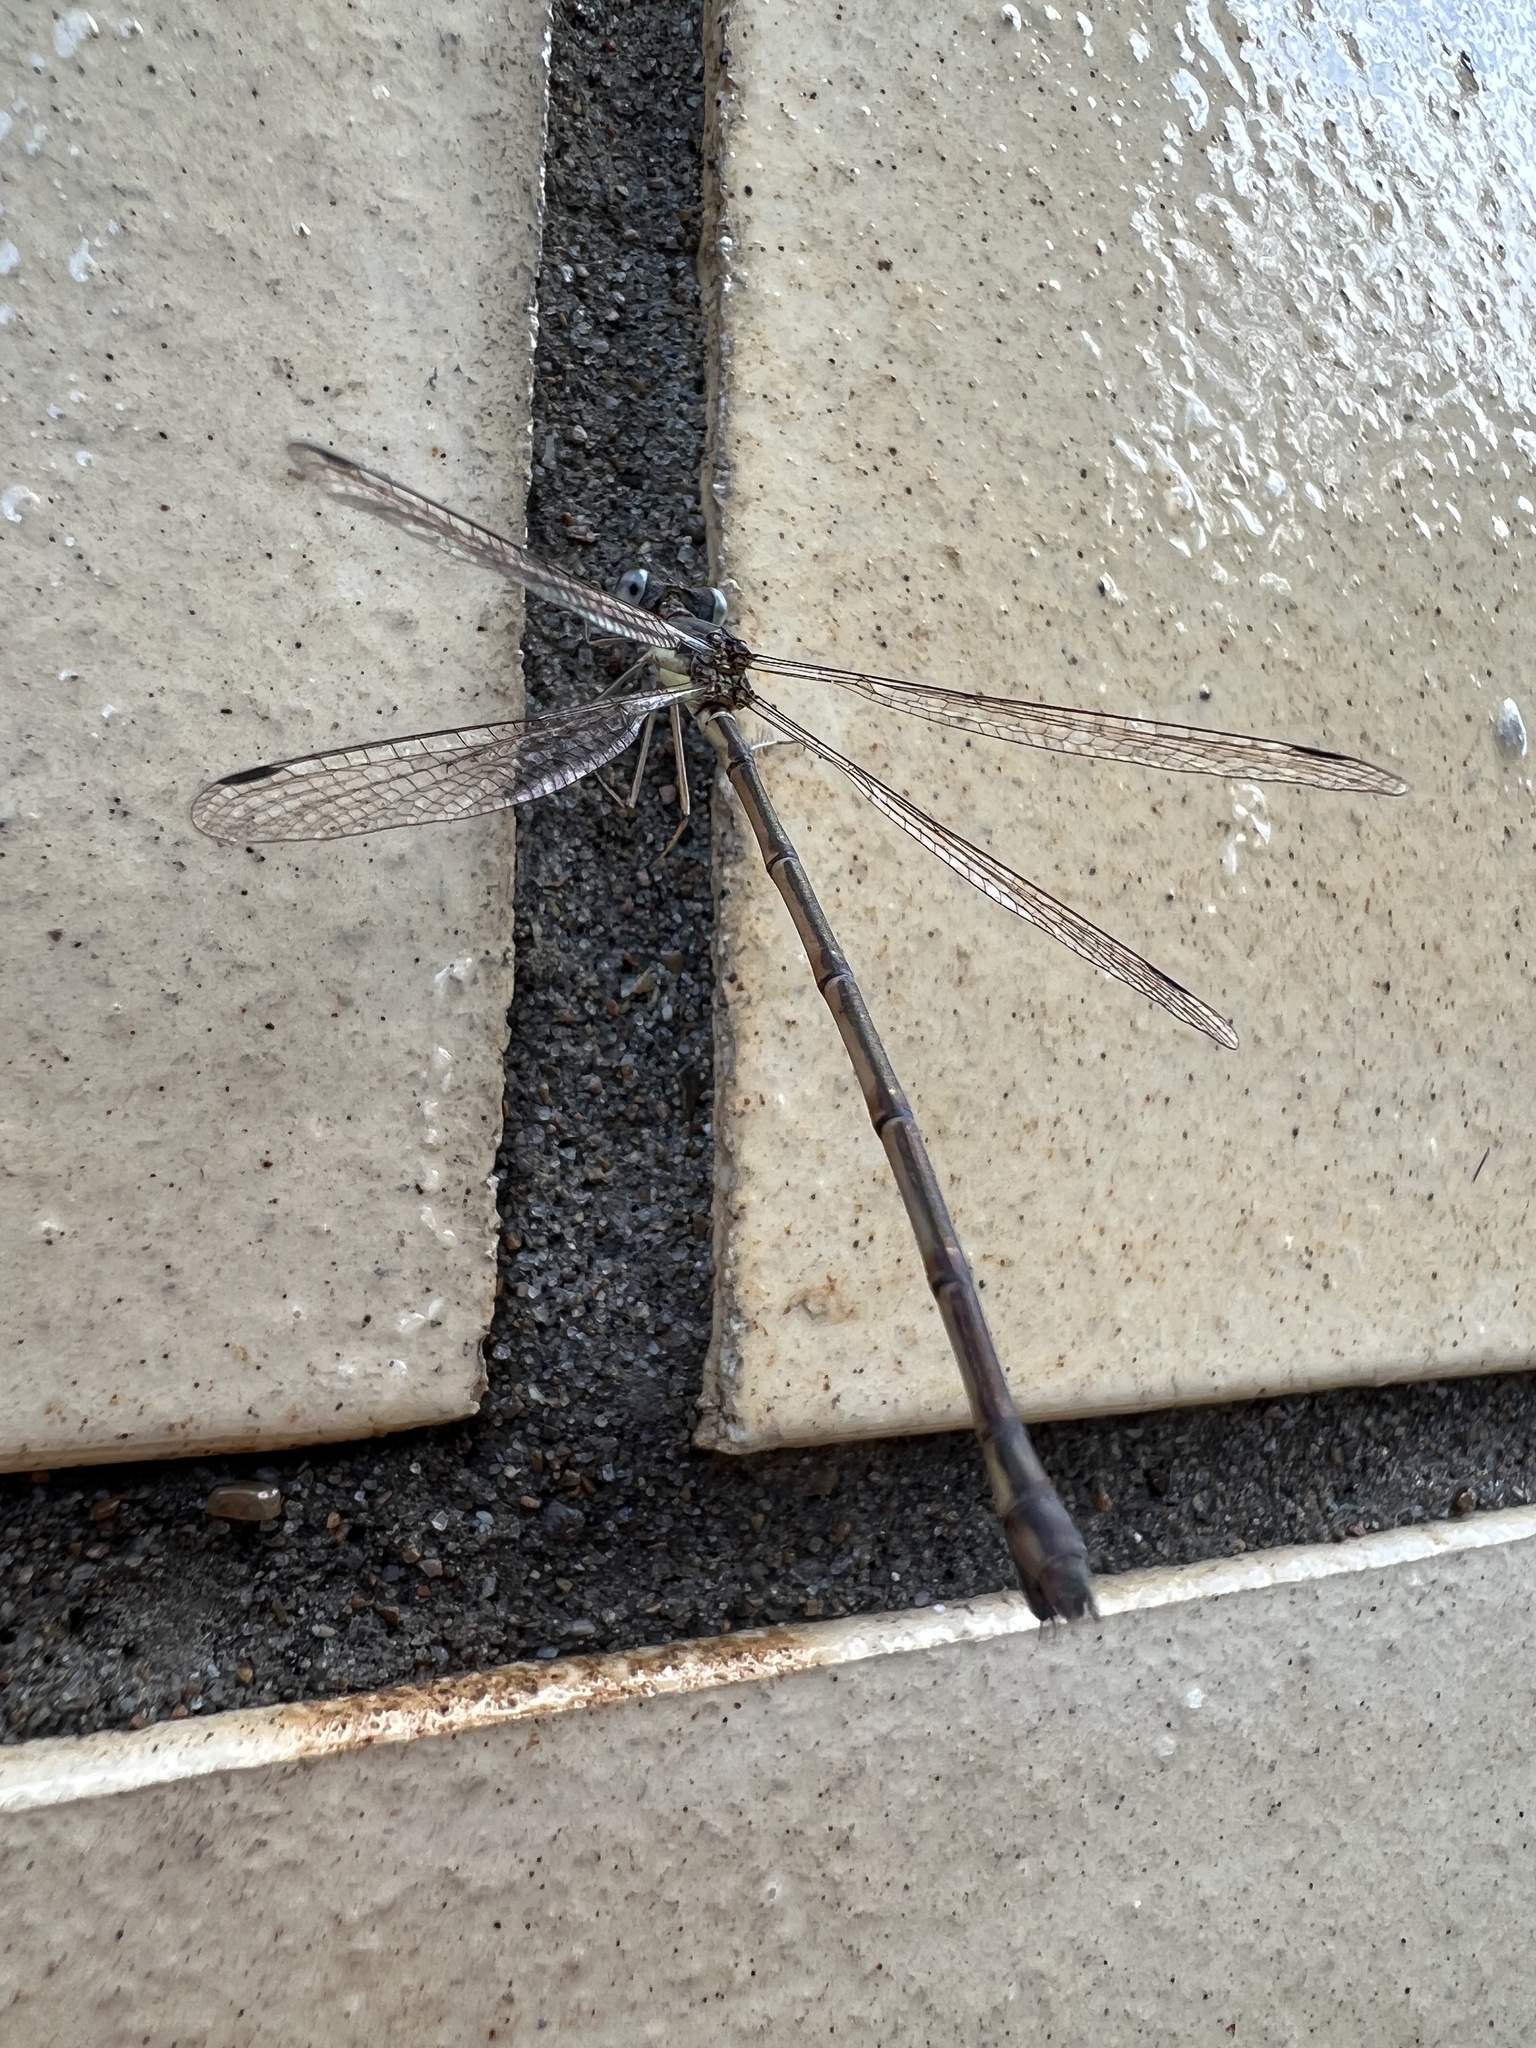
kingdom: Animalia
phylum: Arthropoda
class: Insecta
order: Odonata
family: Lestidae
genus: Archilestes
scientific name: Archilestes grandis
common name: Great spreadwing
